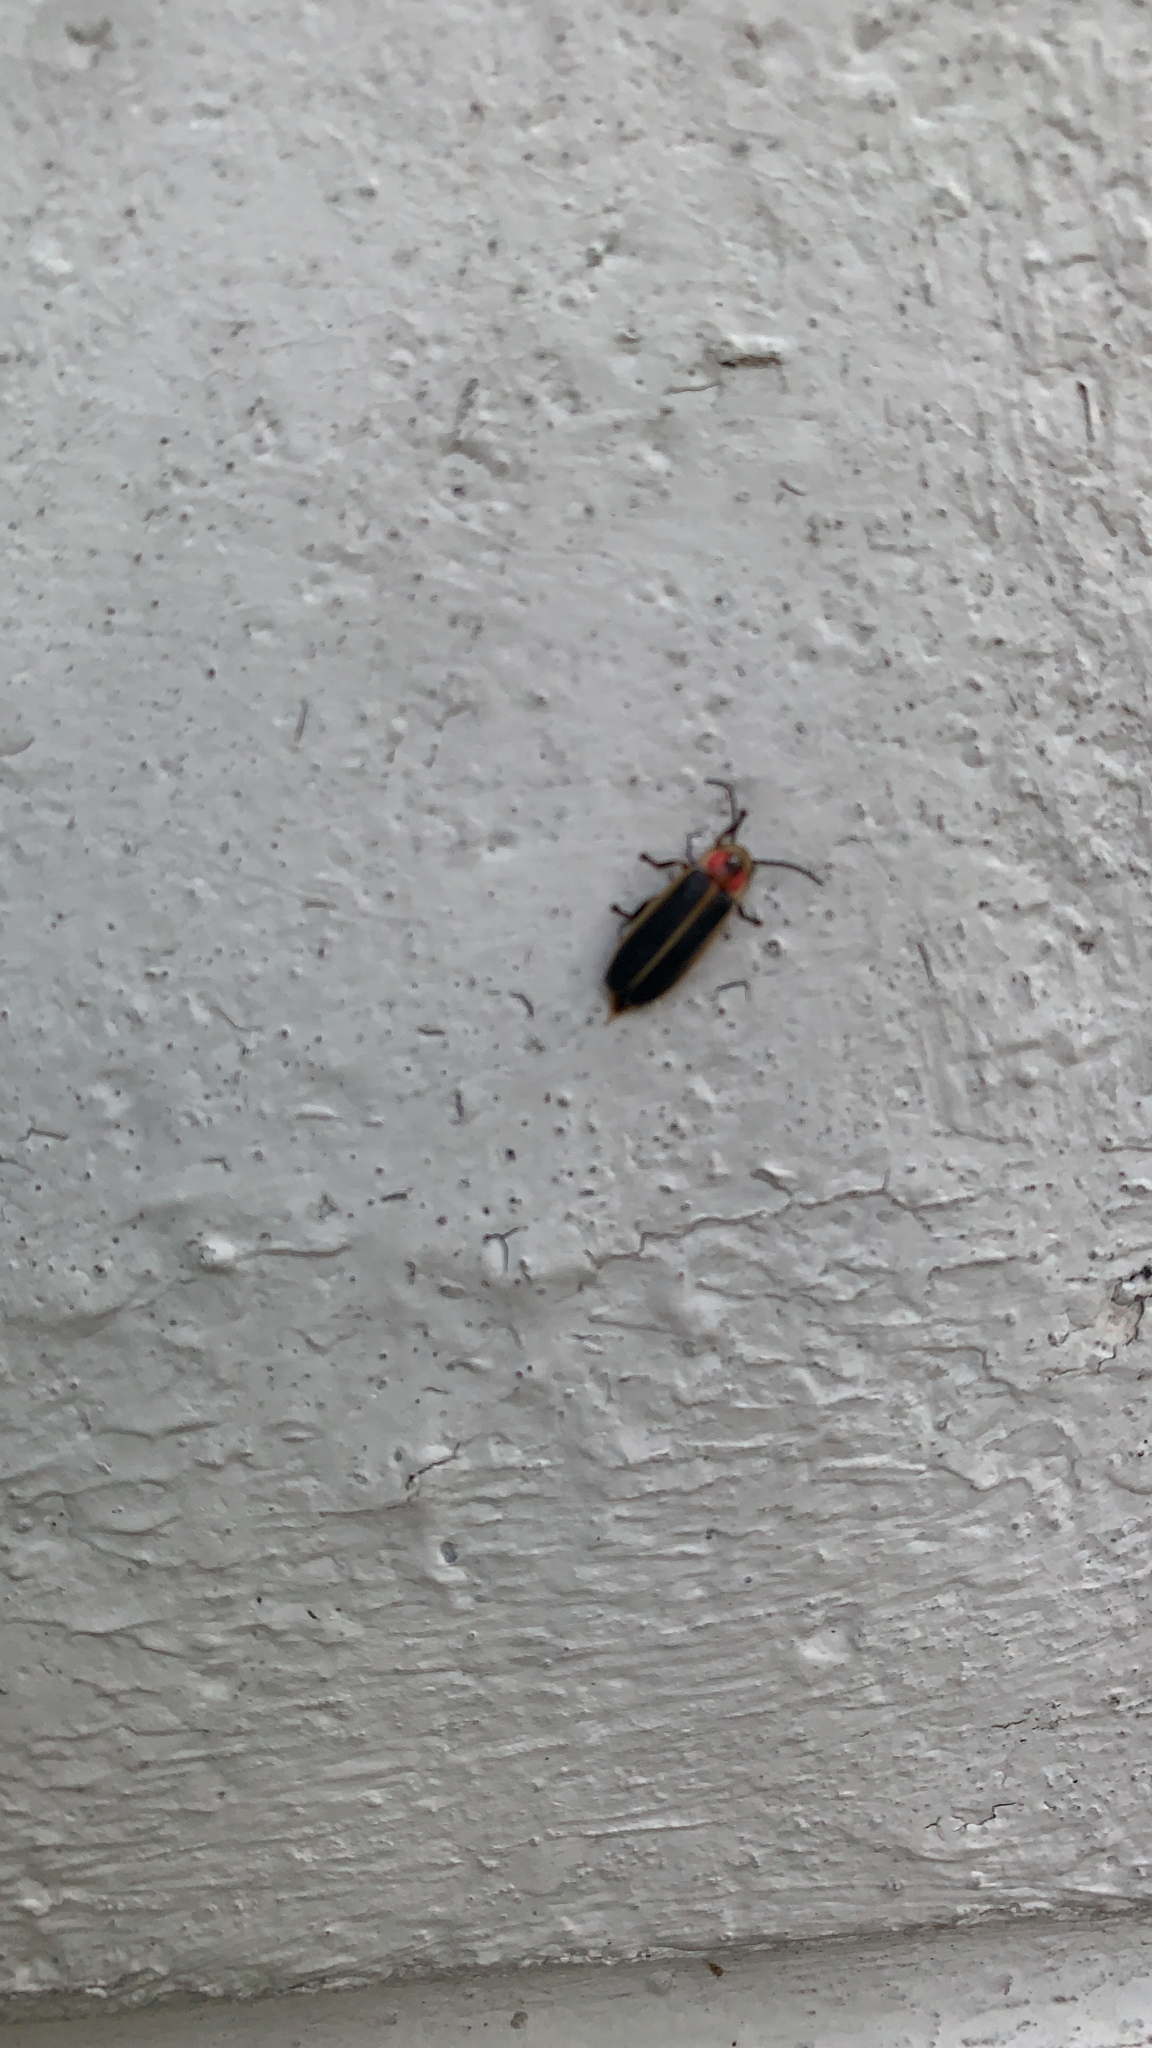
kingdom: Animalia
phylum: Arthropoda
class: Insecta
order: Coleoptera
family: Lampyridae
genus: Photinus
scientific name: Photinus pyralis
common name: Big dipper firefly
